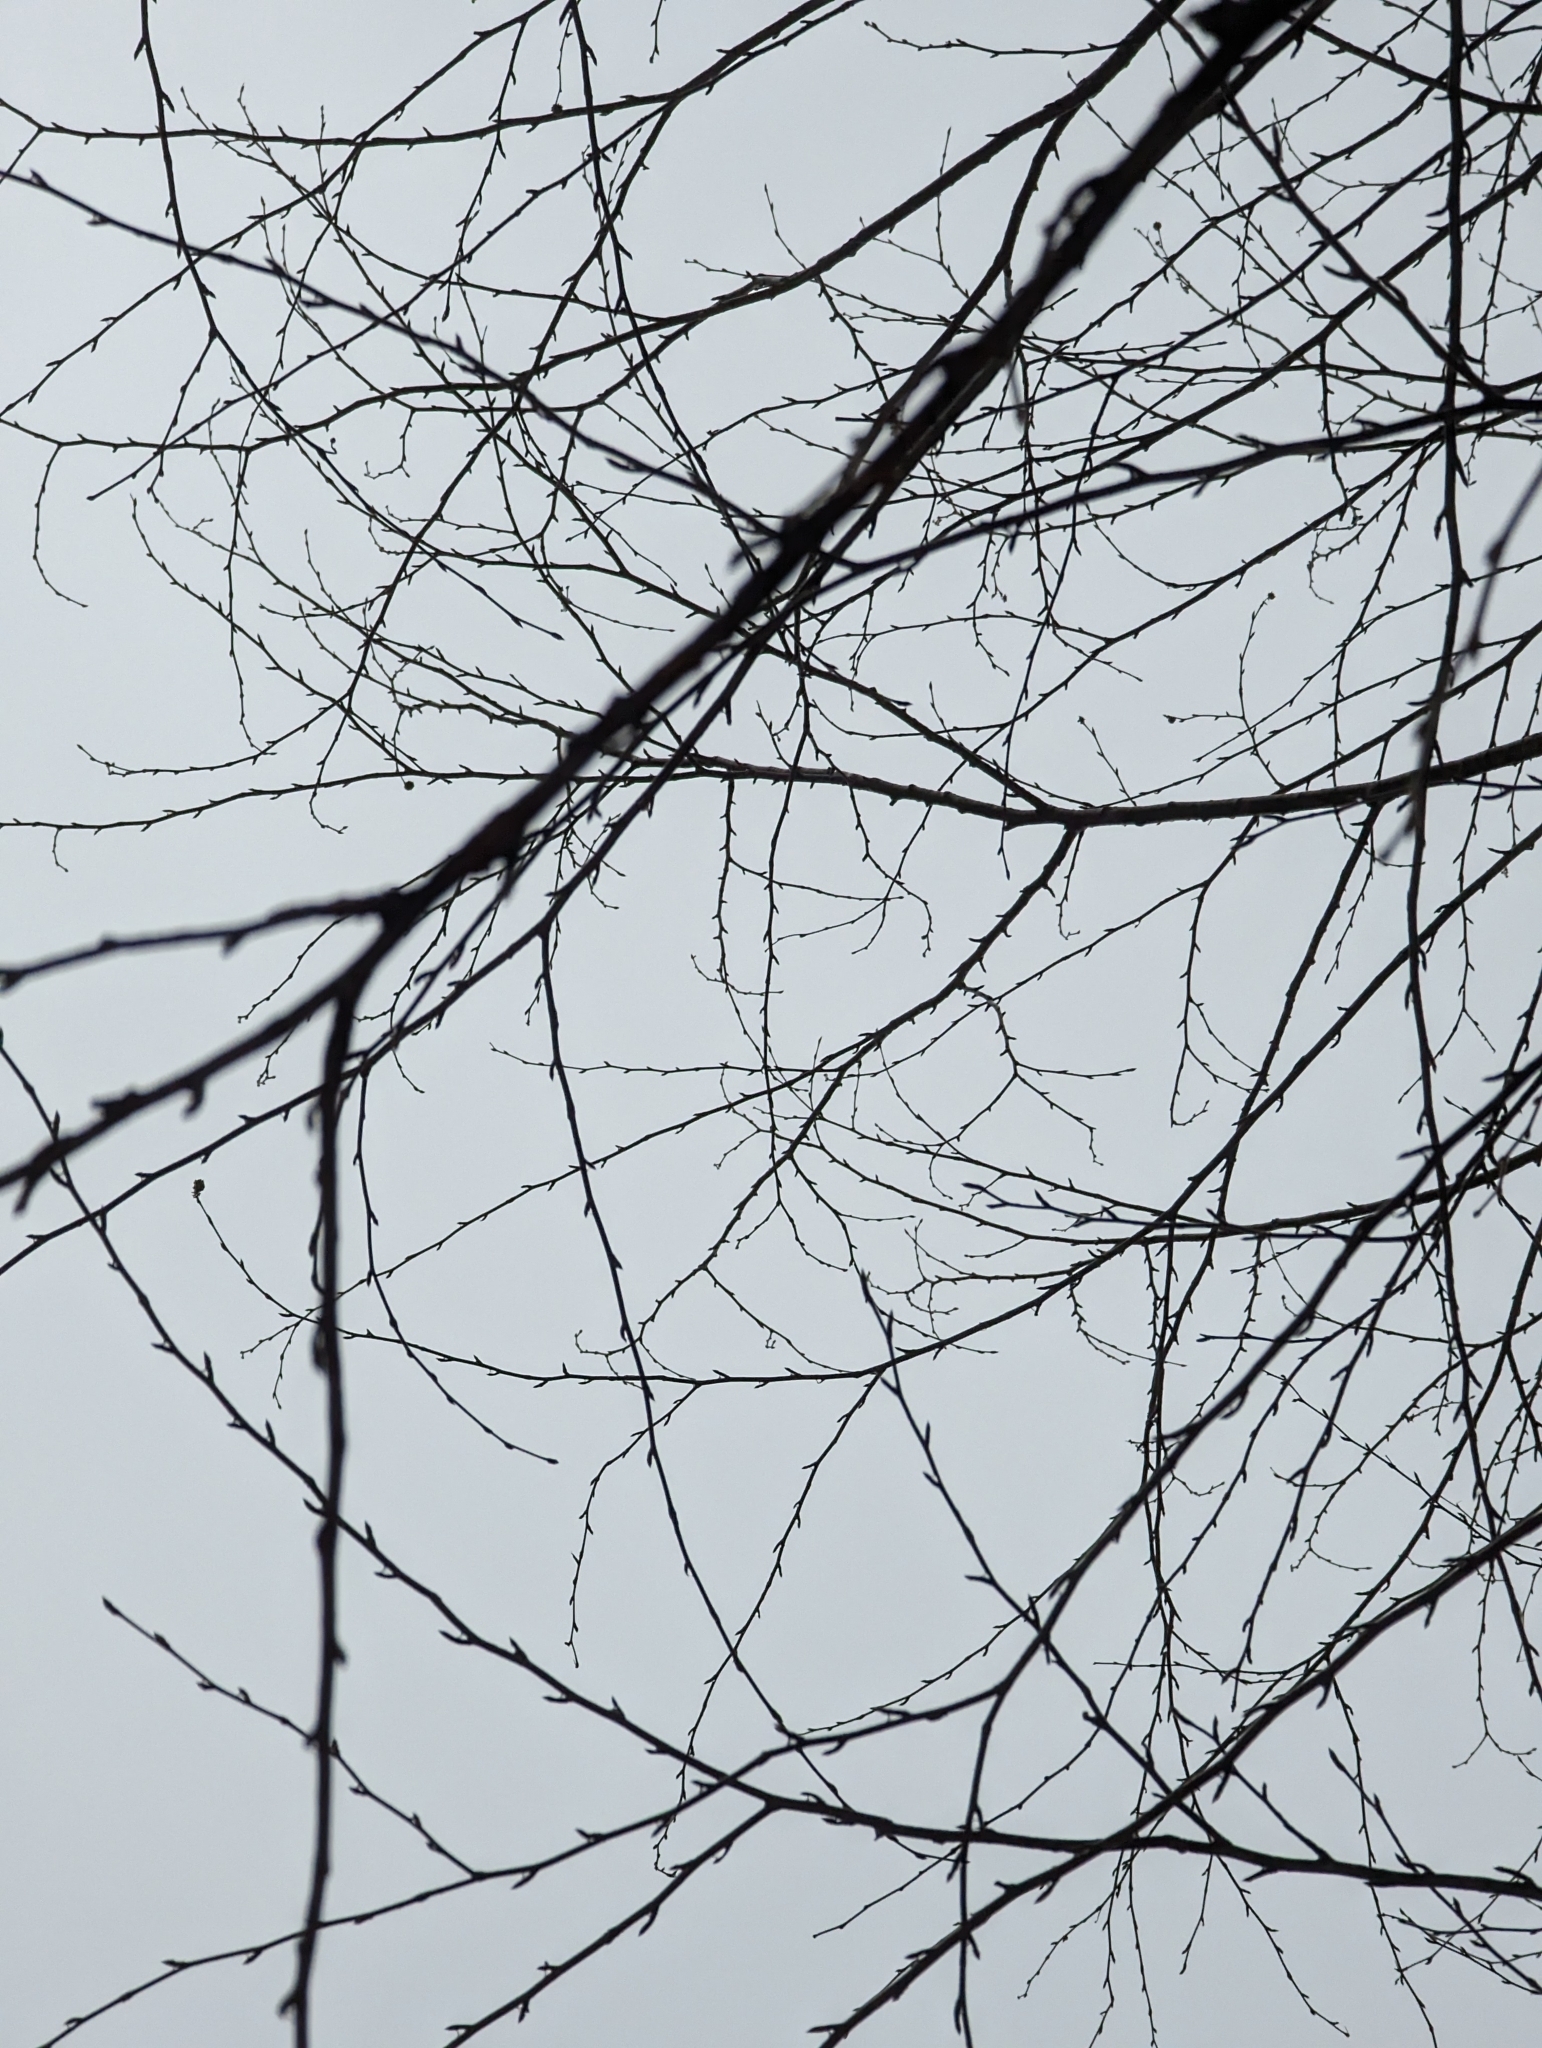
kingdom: Plantae
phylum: Tracheophyta
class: Magnoliopsida
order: Fagales
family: Betulaceae
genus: Betula
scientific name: Betula alleghaniensis
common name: Yellow birch
